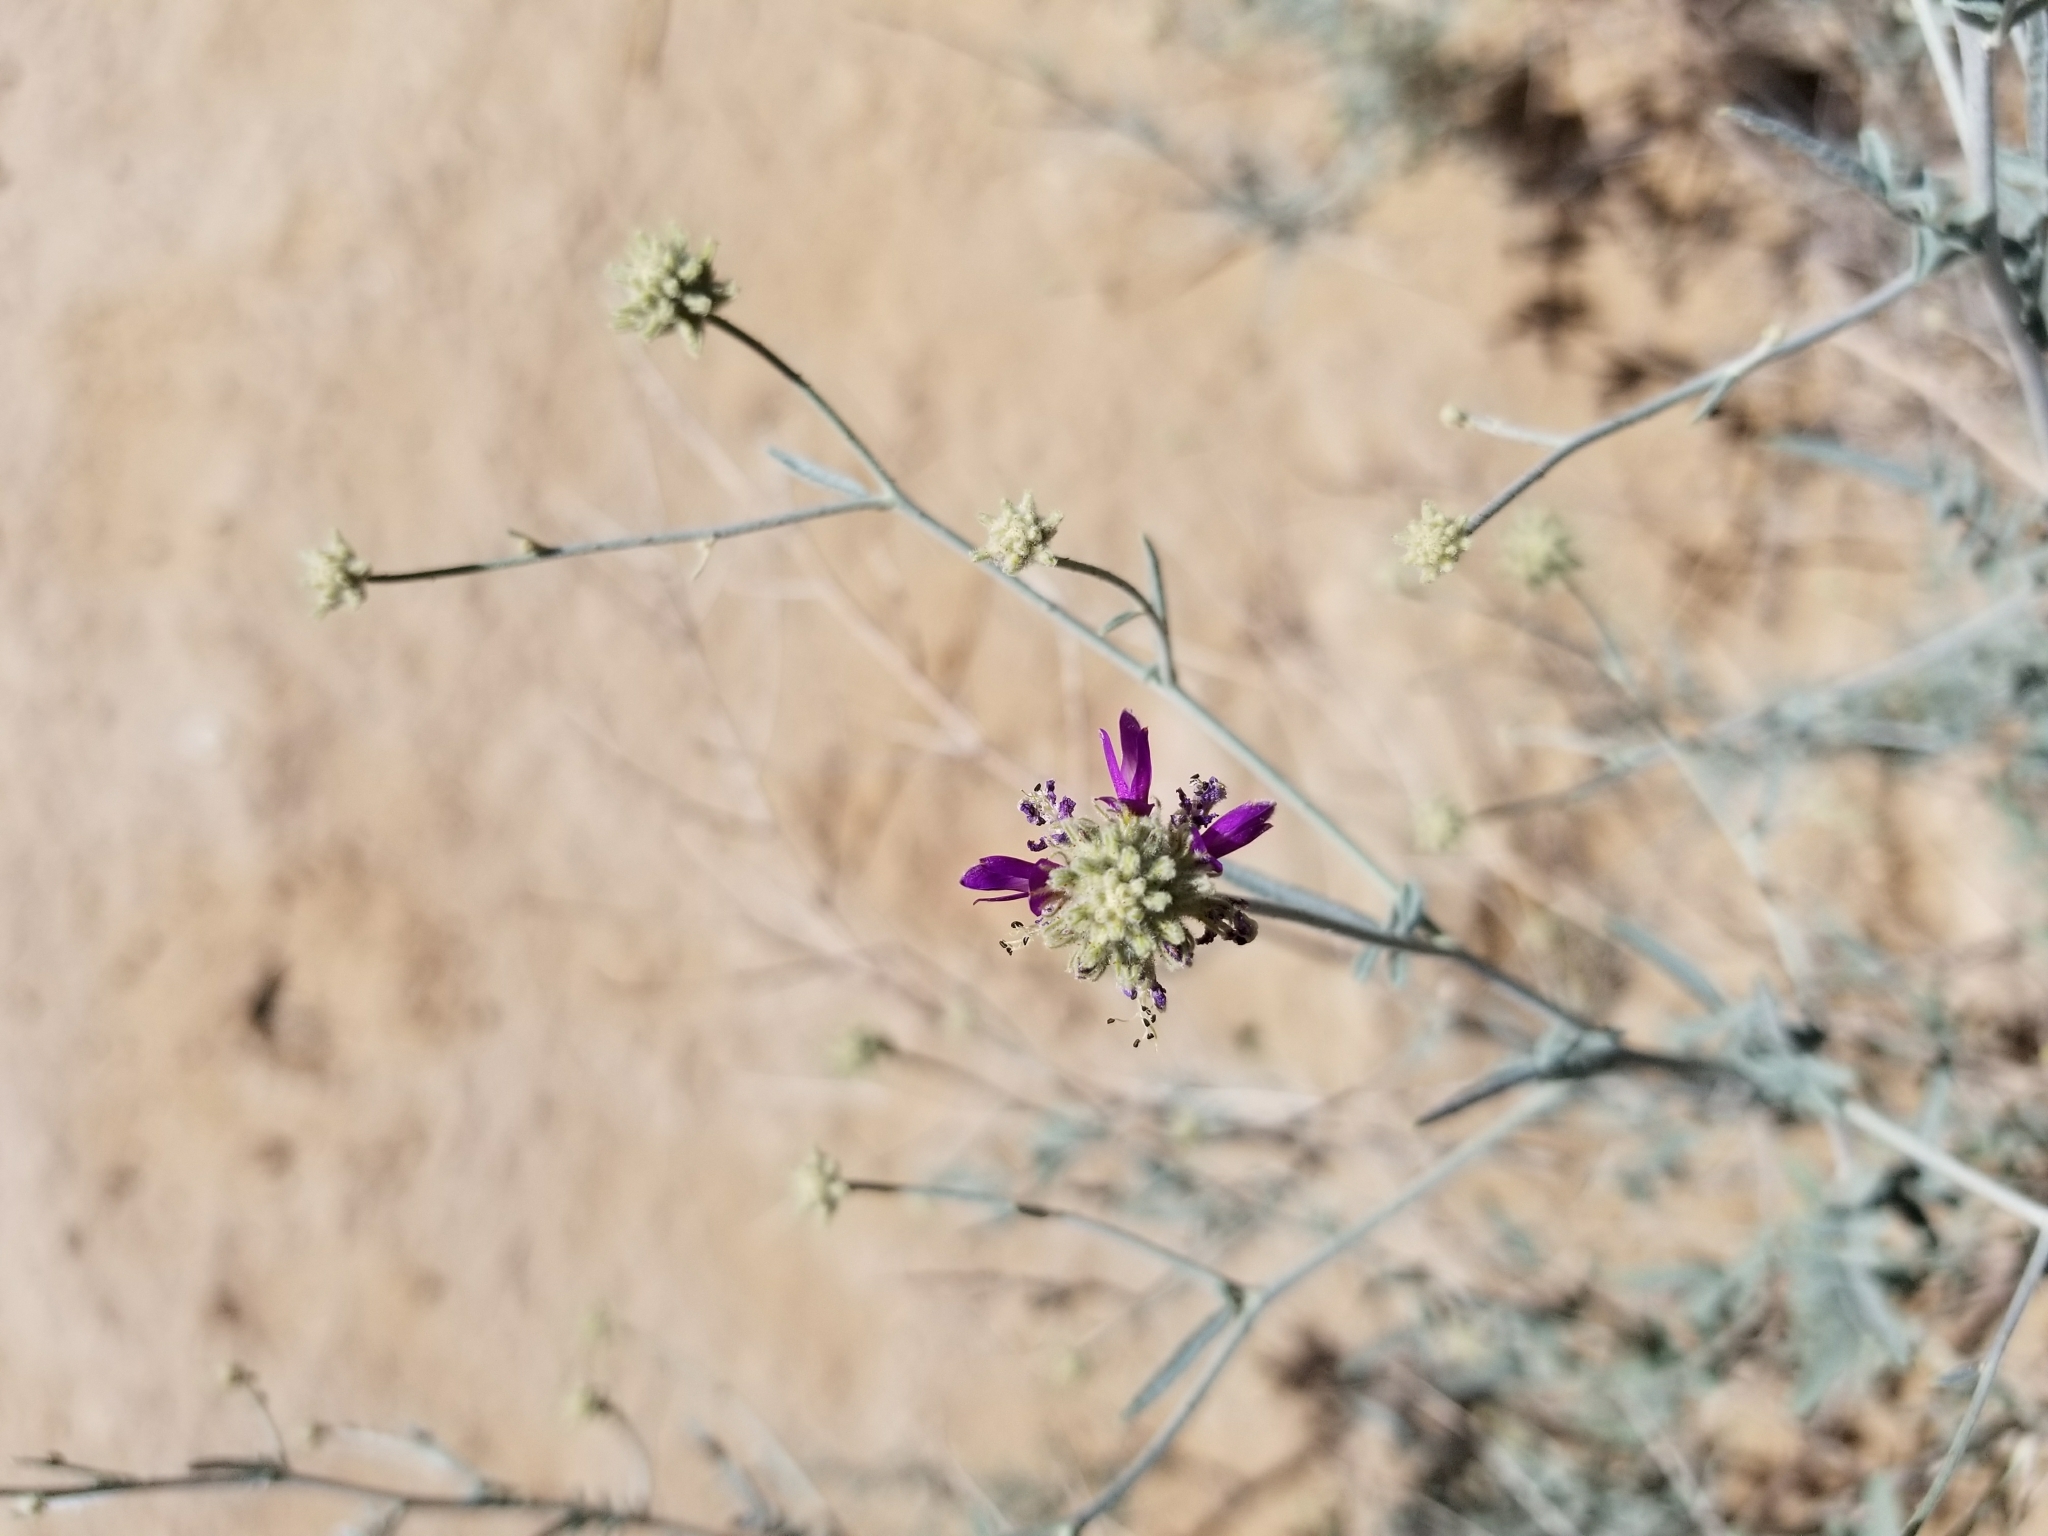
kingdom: Plantae
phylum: Tracheophyta
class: Magnoliopsida
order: Fabales
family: Fabaceae
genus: Psorothamnus
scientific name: Psorothamnus emoryi
